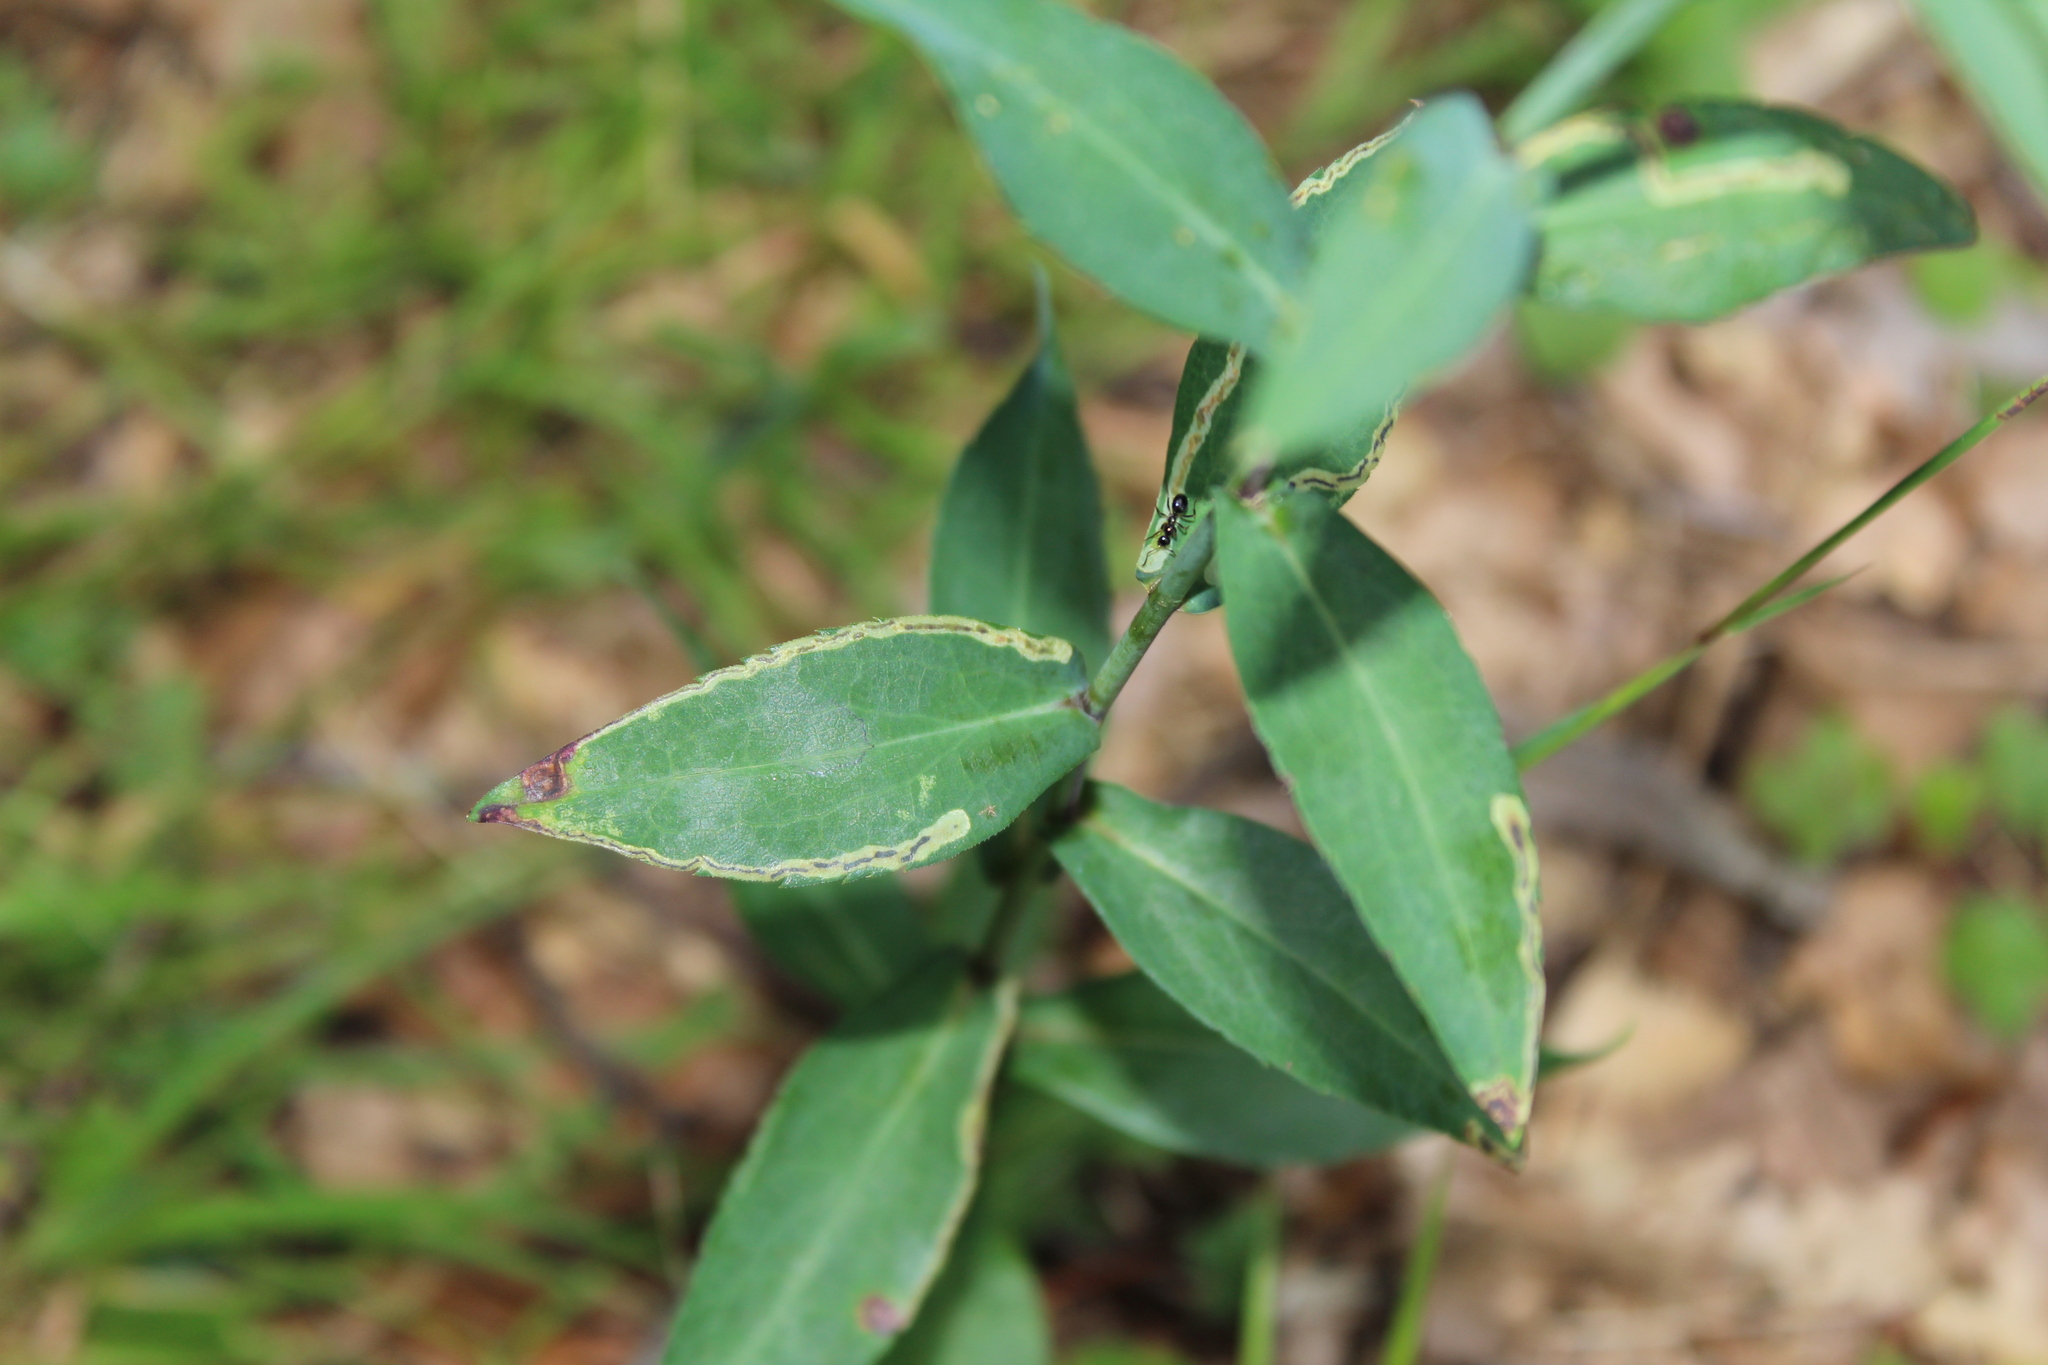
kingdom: Animalia
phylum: Arthropoda
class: Insecta
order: Diptera
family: Agromyzidae
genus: Liriomyza
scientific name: Liriomyza eupatorii
